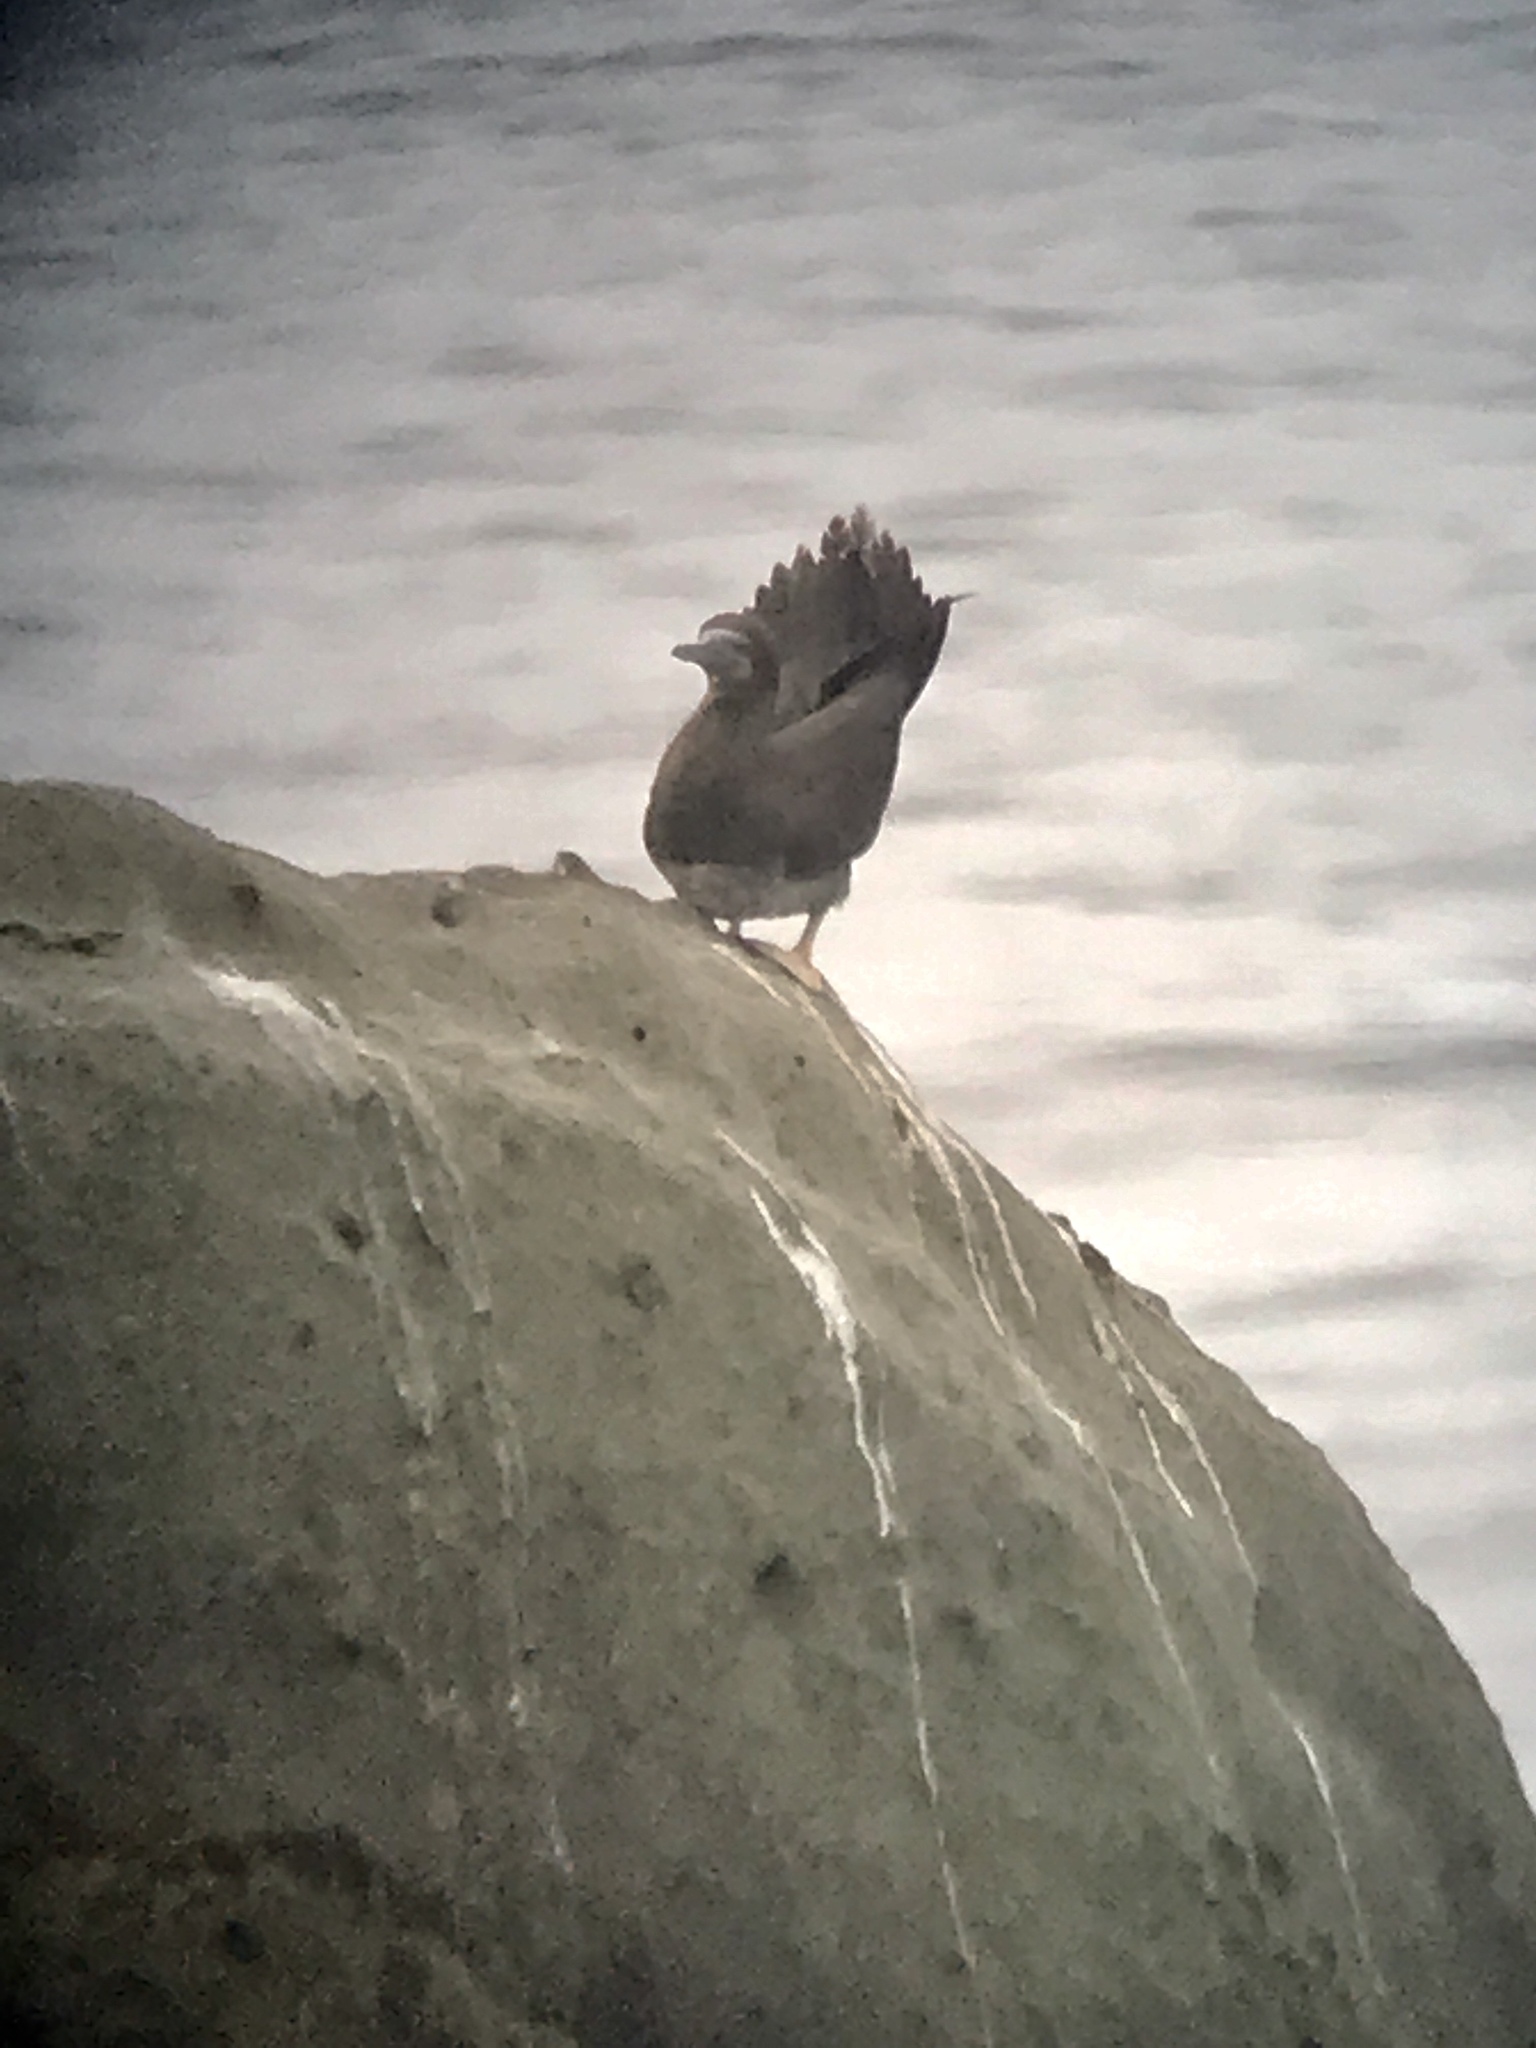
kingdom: Animalia
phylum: Chordata
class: Aves
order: Suliformes
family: Sulidae
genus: Sula
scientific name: Sula leucogaster
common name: Brown booby
